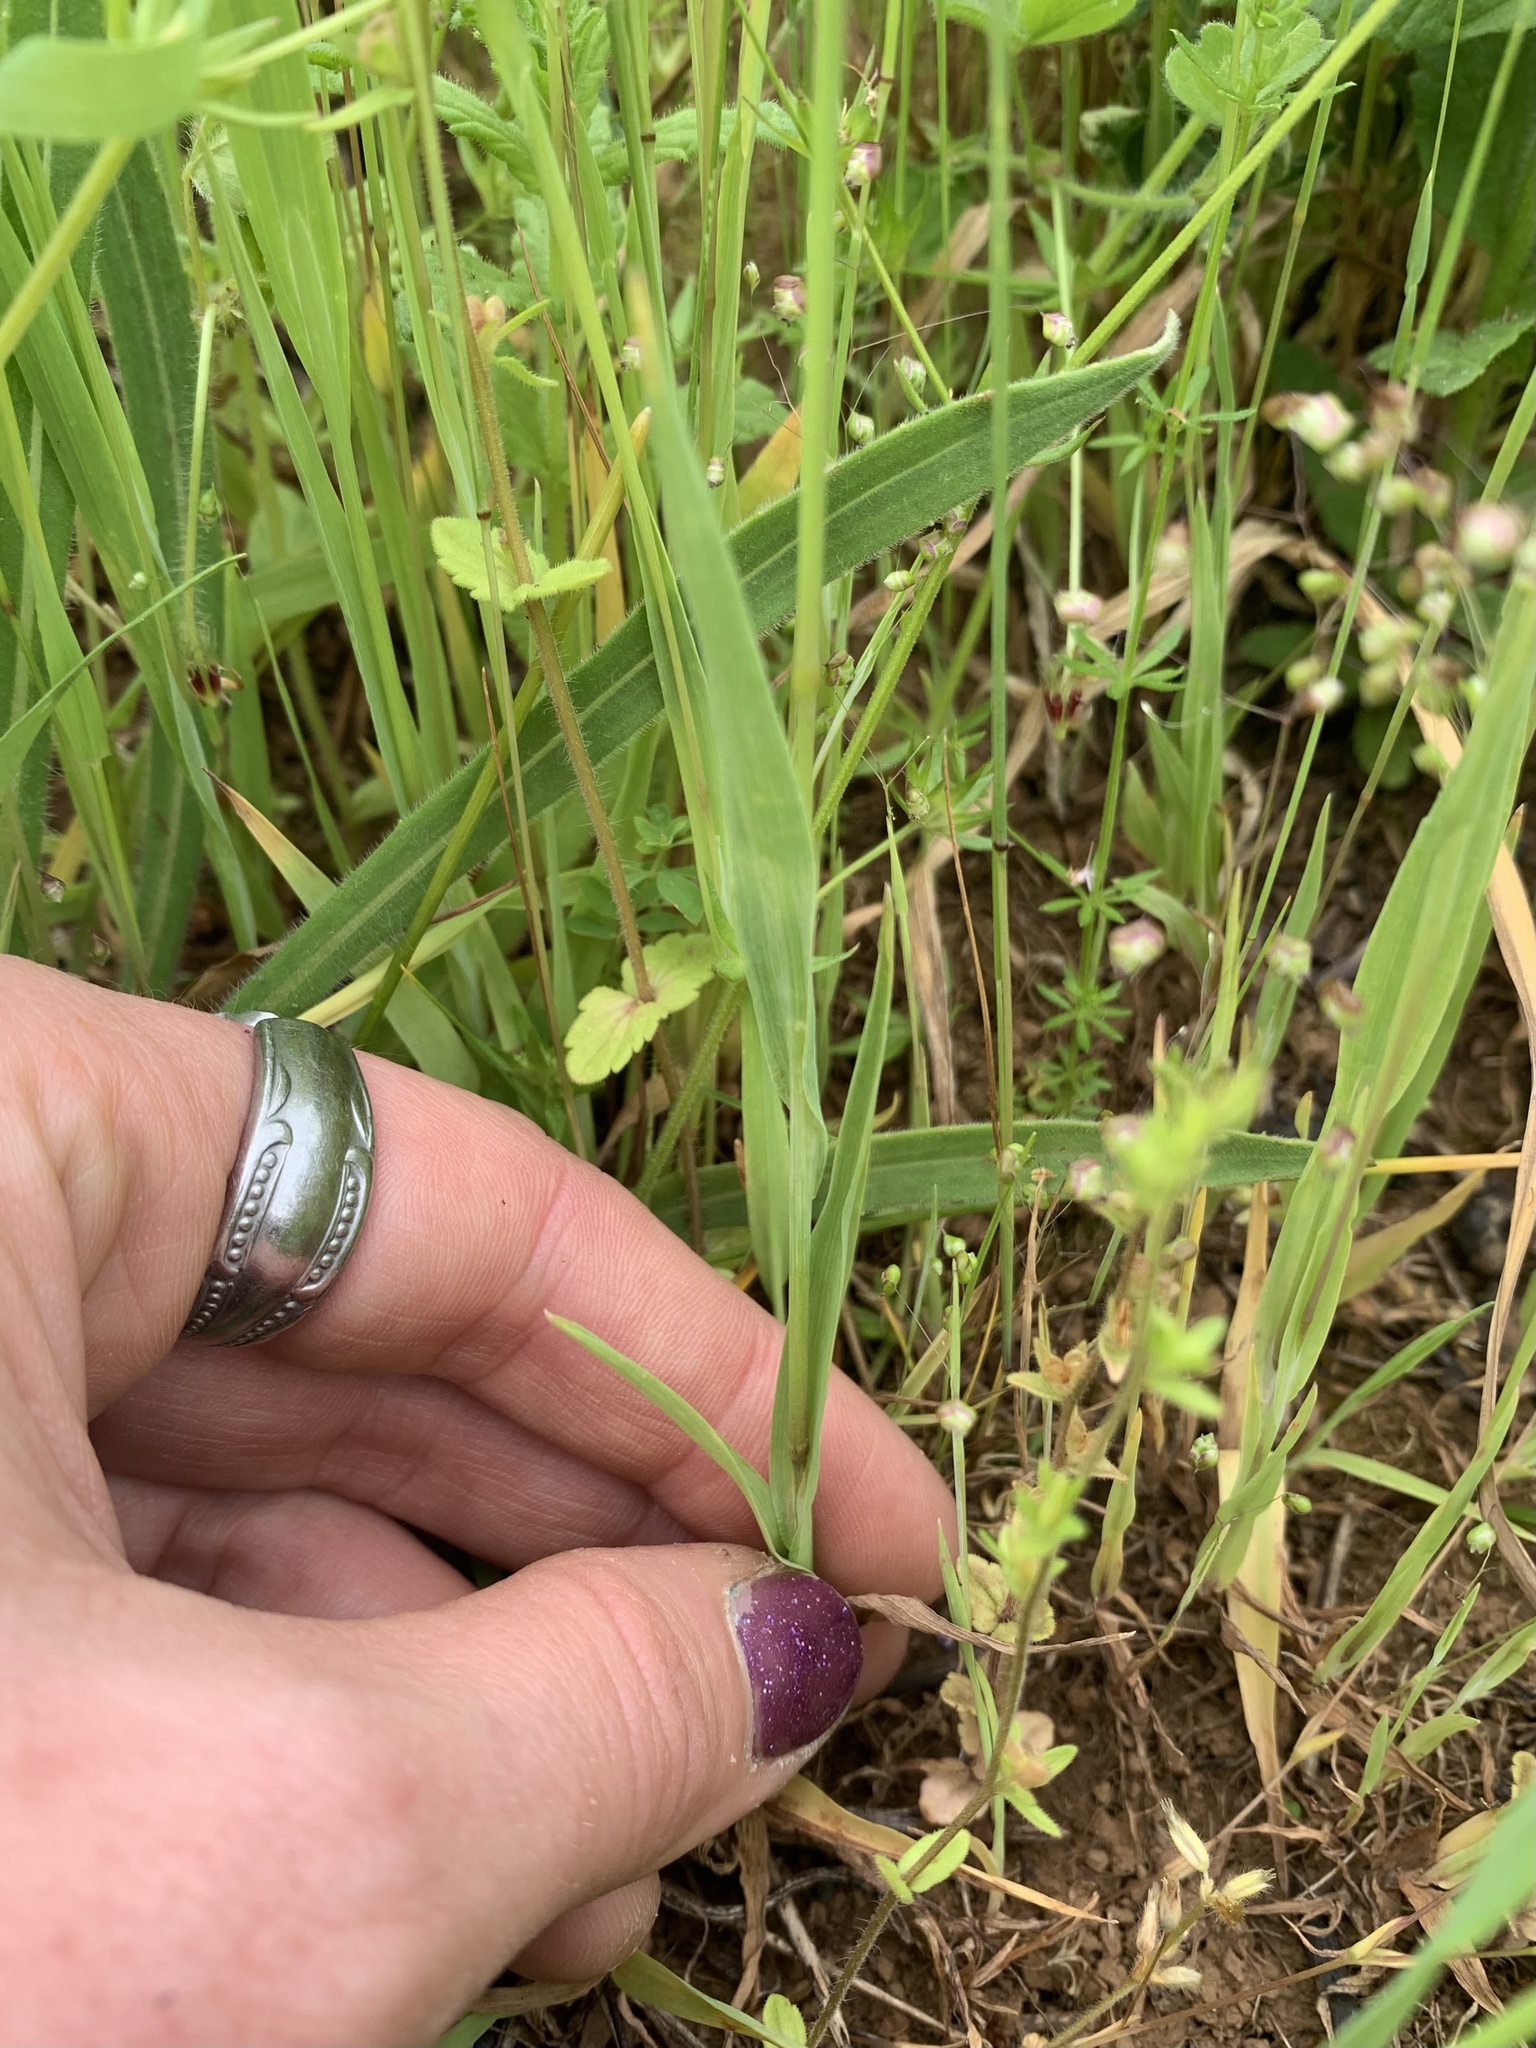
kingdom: Plantae
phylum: Tracheophyta
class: Liliopsida
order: Poales
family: Poaceae
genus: Briza
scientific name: Briza minor
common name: Lesser quaking-grass
